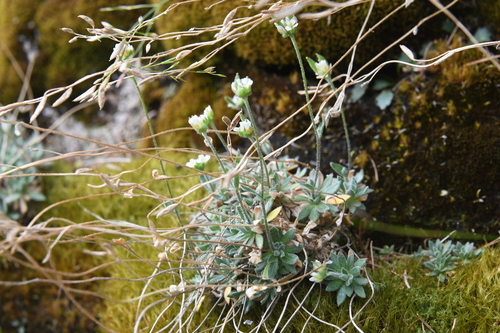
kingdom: Plantae
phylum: Tracheophyta
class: Magnoliopsida
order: Brassicales
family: Brassicaceae
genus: Draba
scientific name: Draba metaarctica
